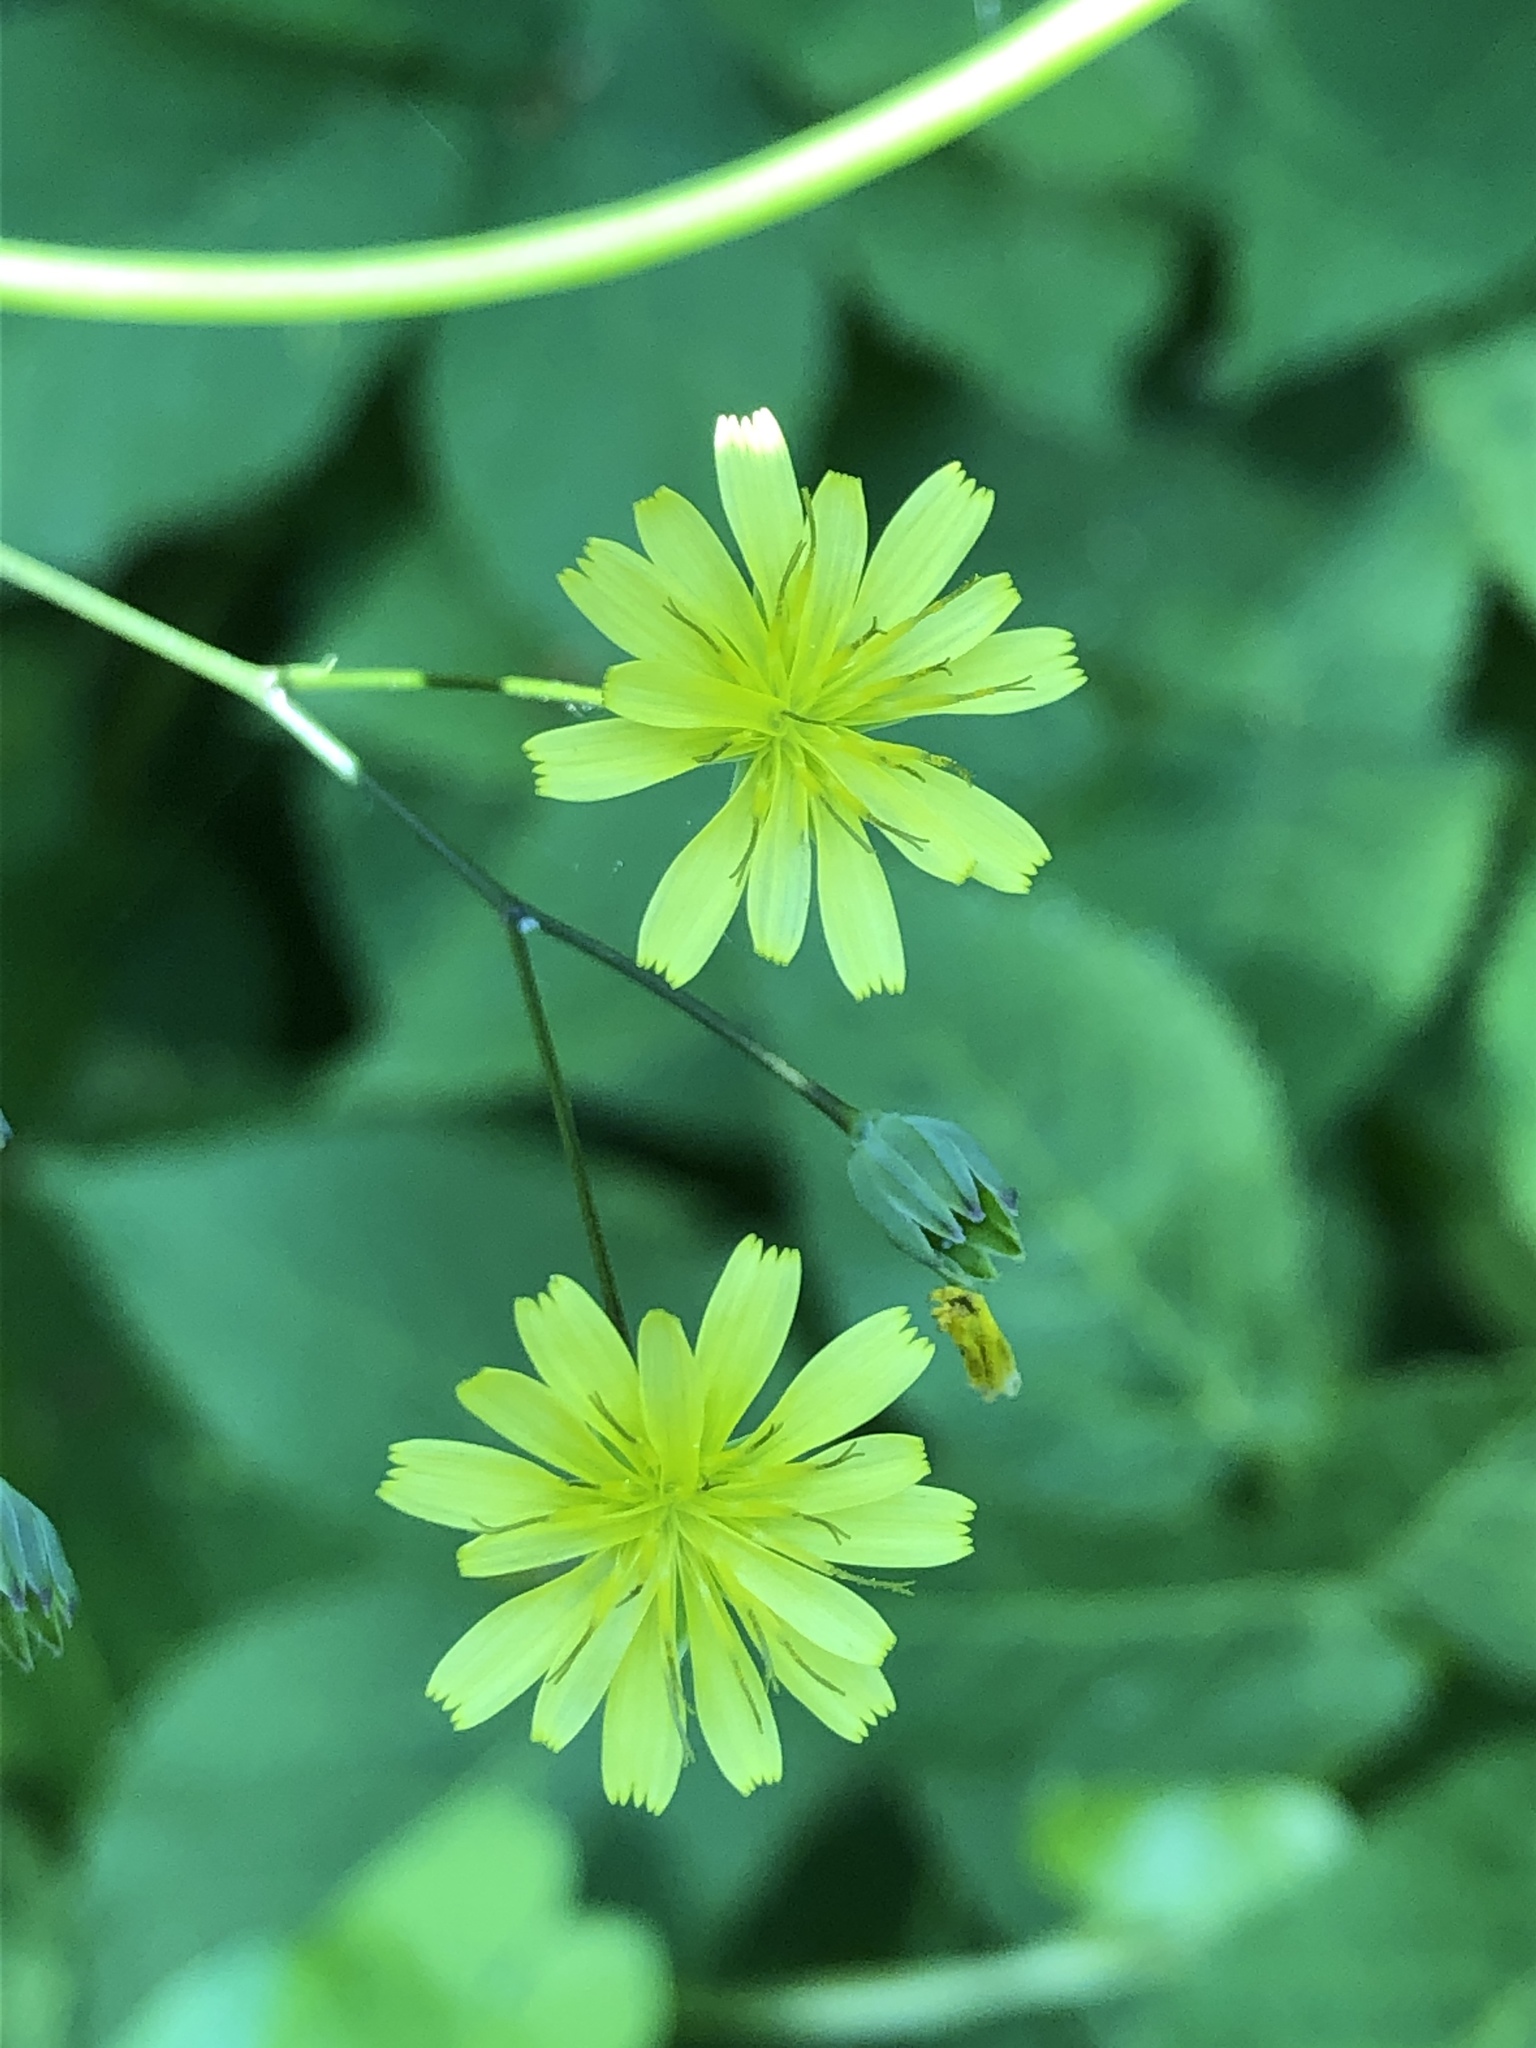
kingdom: Plantae
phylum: Tracheophyta
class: Magnoliopsida
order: Asterales
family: Asteraceae
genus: Lapsana
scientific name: Lapsana communis
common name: Nipplewort
